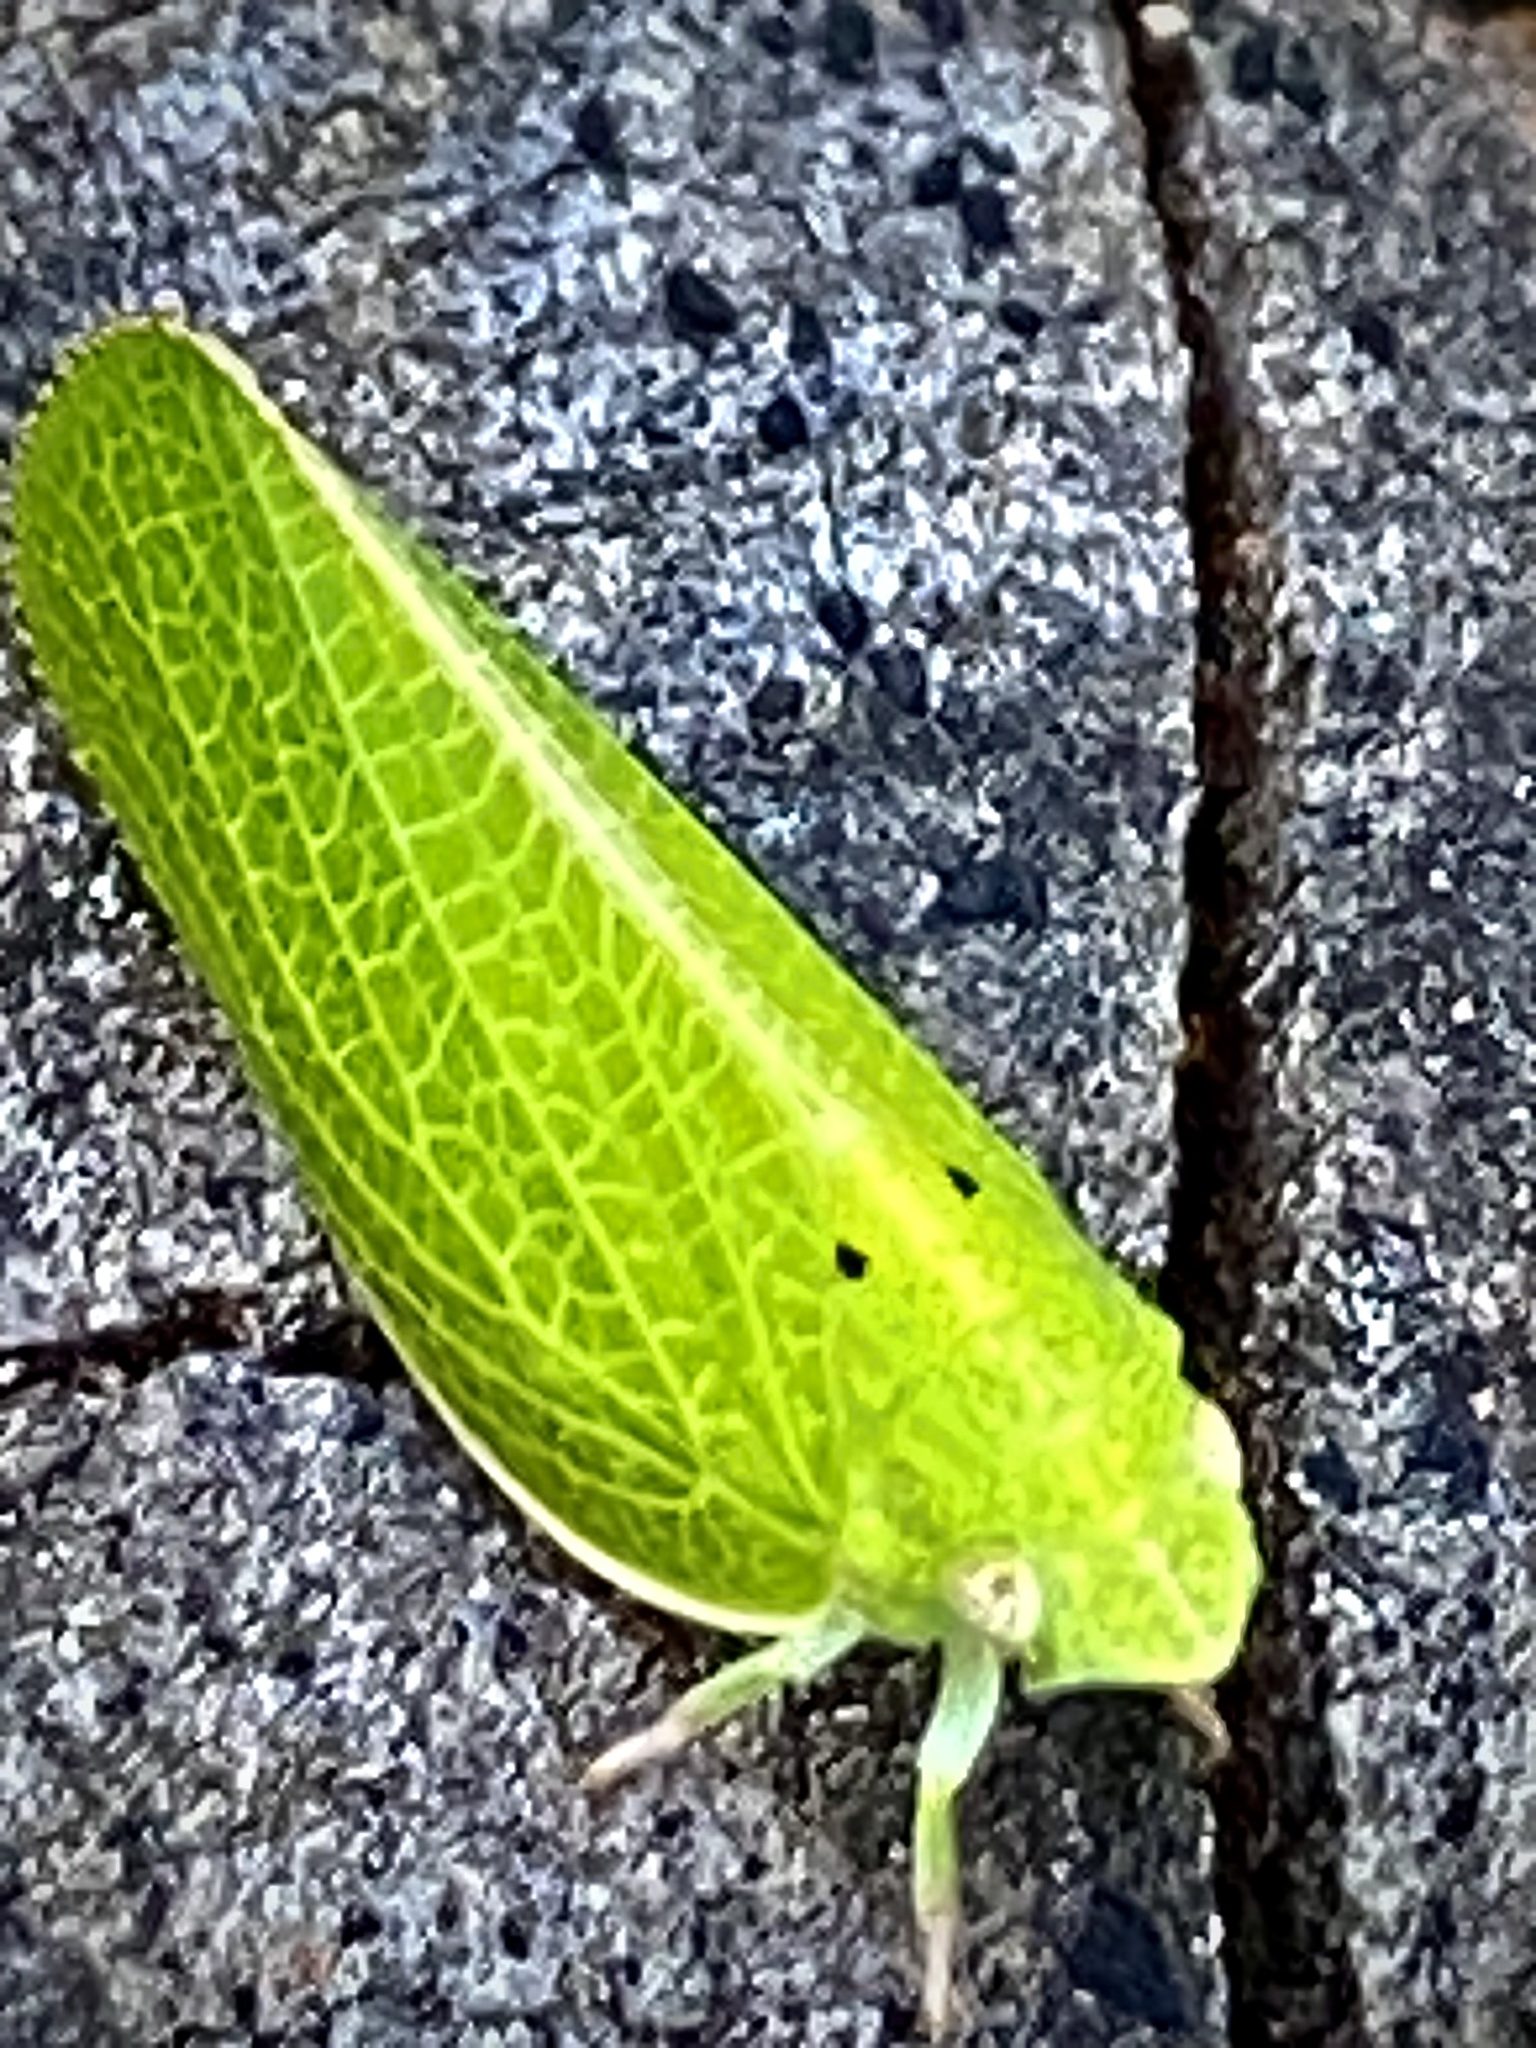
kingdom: Animalia
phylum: Arthropoda
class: Insecta
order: Hemiptera
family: Acanaloniidae
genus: Acanalonia
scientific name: Acanalonia conica
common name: Green cone-headed planthopper
